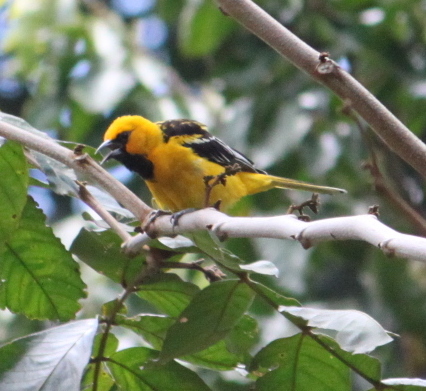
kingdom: Animalia
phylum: Chordata
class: Aves
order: Passeriformes
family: Icteridae
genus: Icterus
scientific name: Icterus gularis
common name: Altamira oriole
